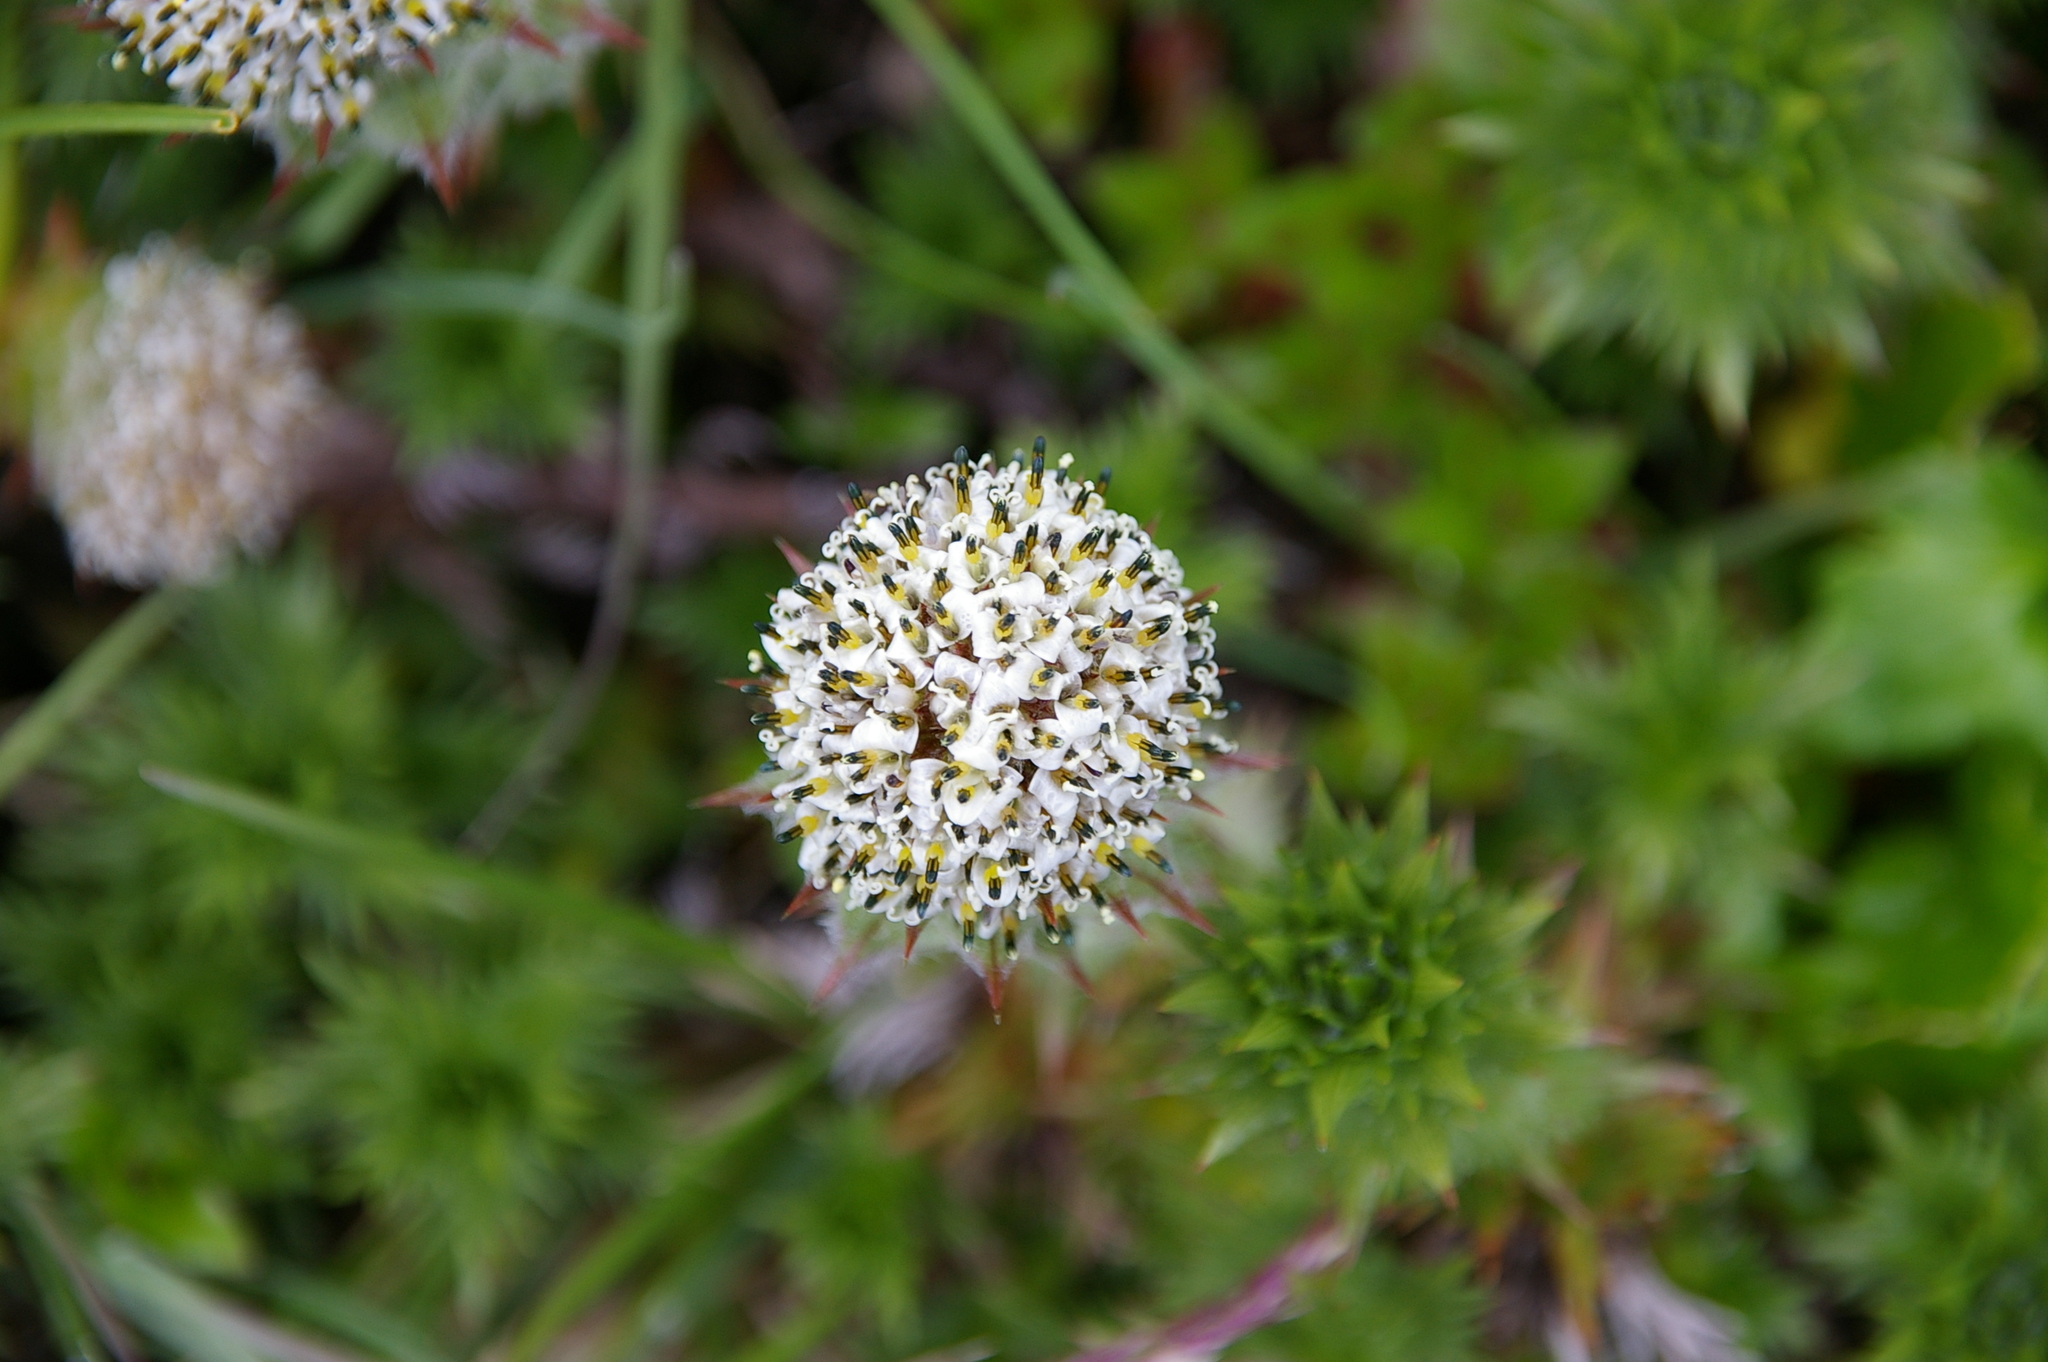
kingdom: Plantae
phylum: Tracheophyta
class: Magnoliopsida
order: Asterales
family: Asteraceae
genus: Nassauvia
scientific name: Nassauvia magellanica
